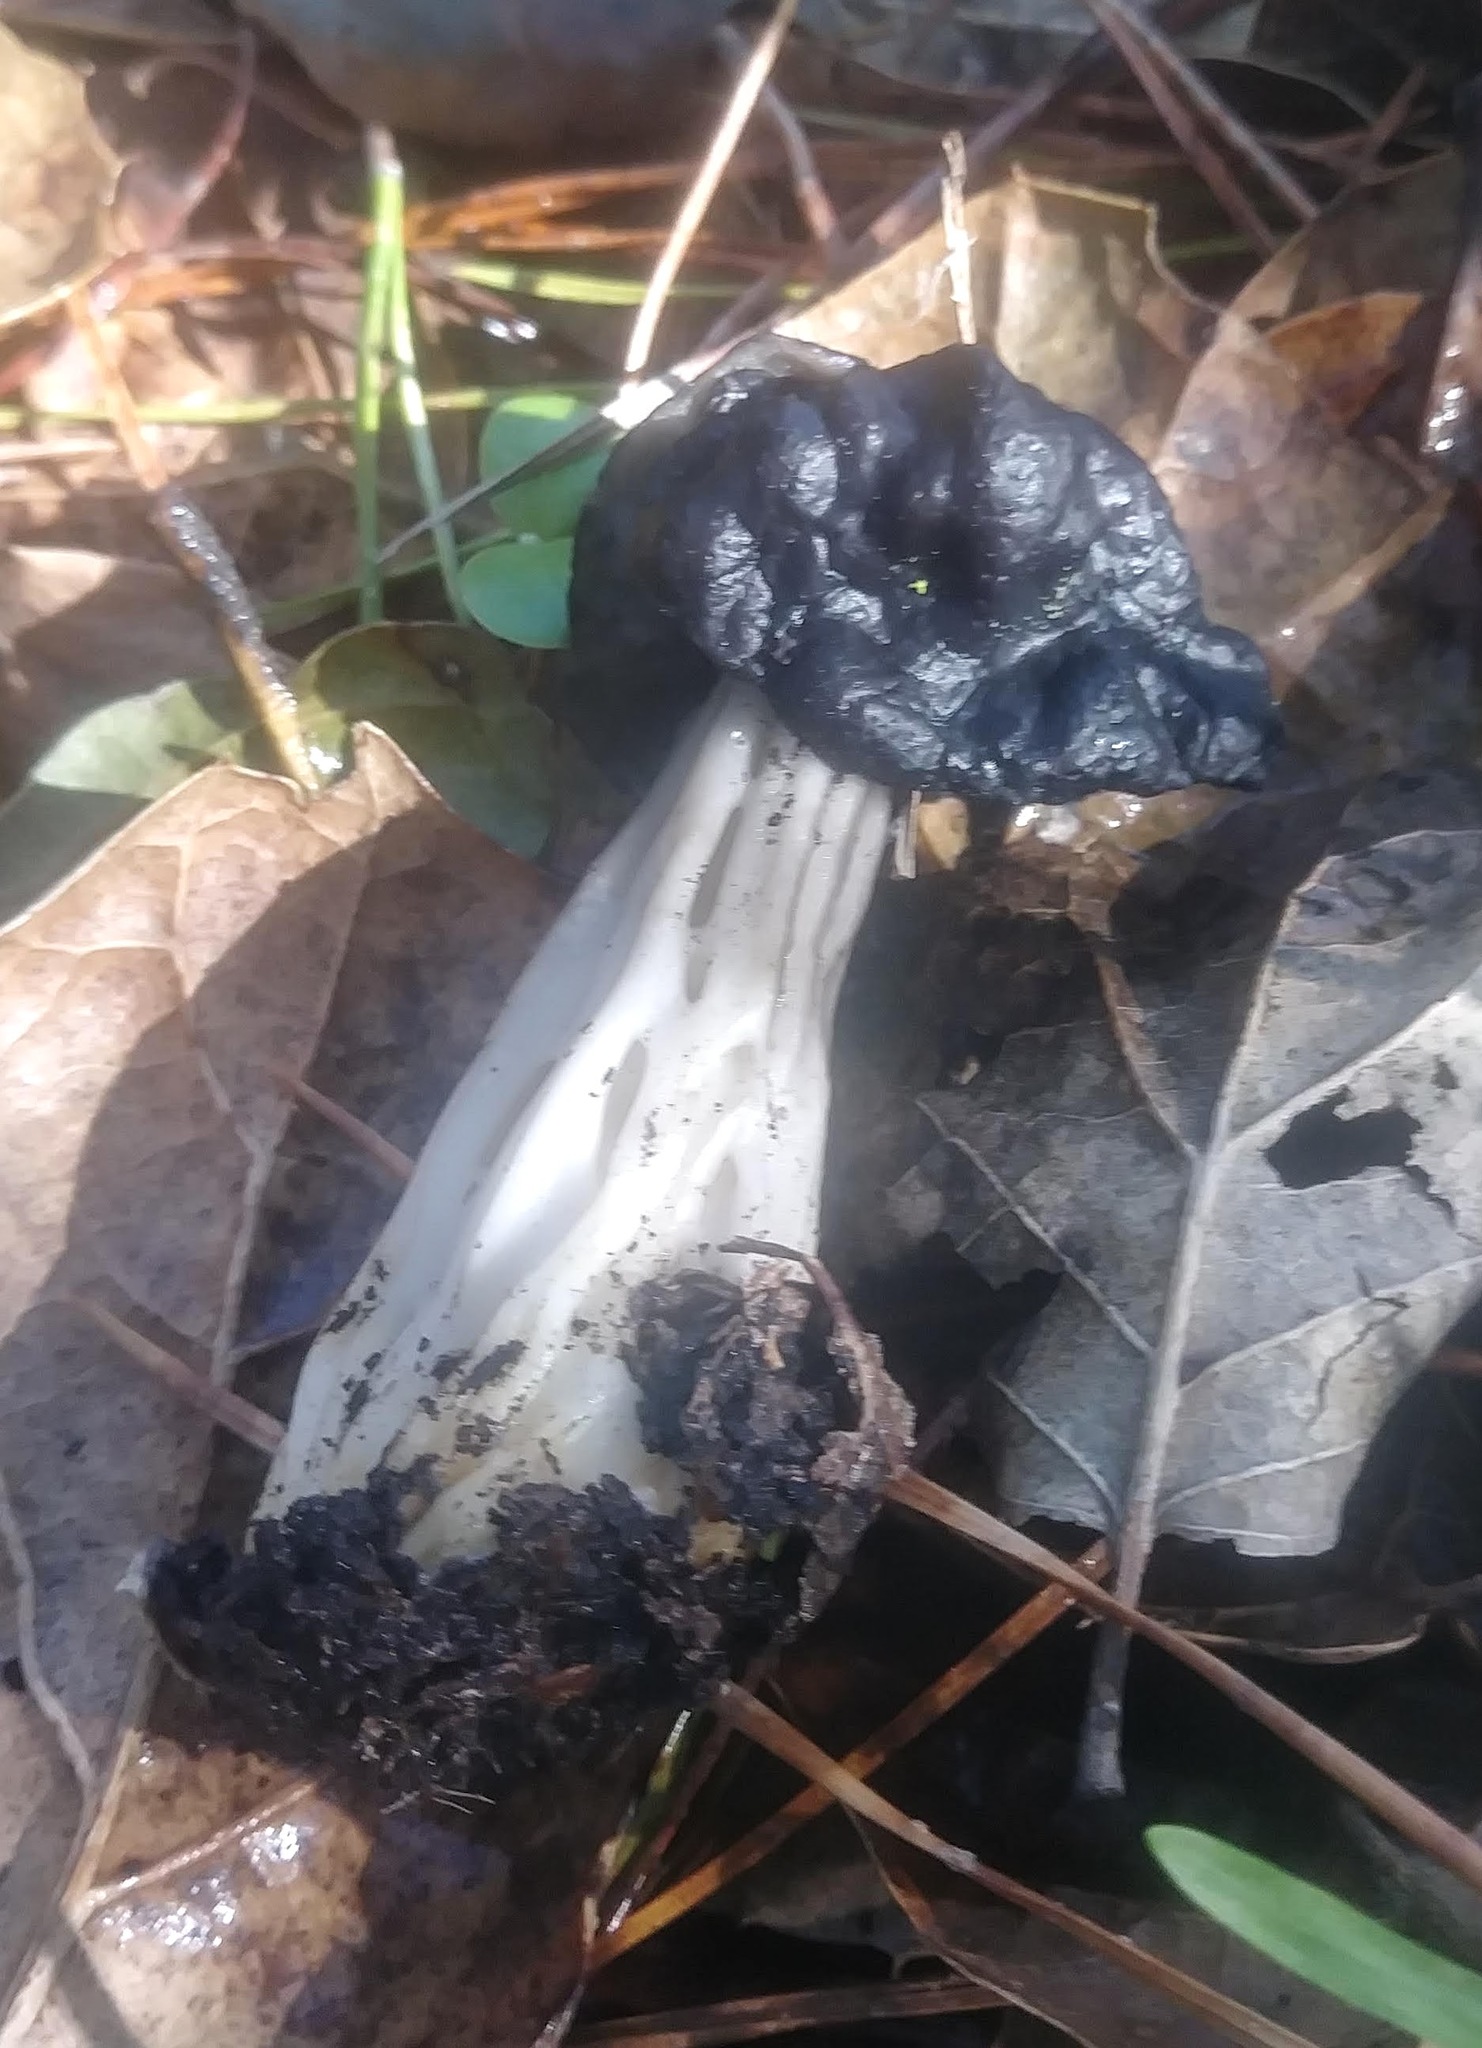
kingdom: Fungi
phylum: Ascomycota
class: Pezizomycetes
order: Pezizales
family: Helvellaceae
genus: Helvella
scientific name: Helvella dryophila
